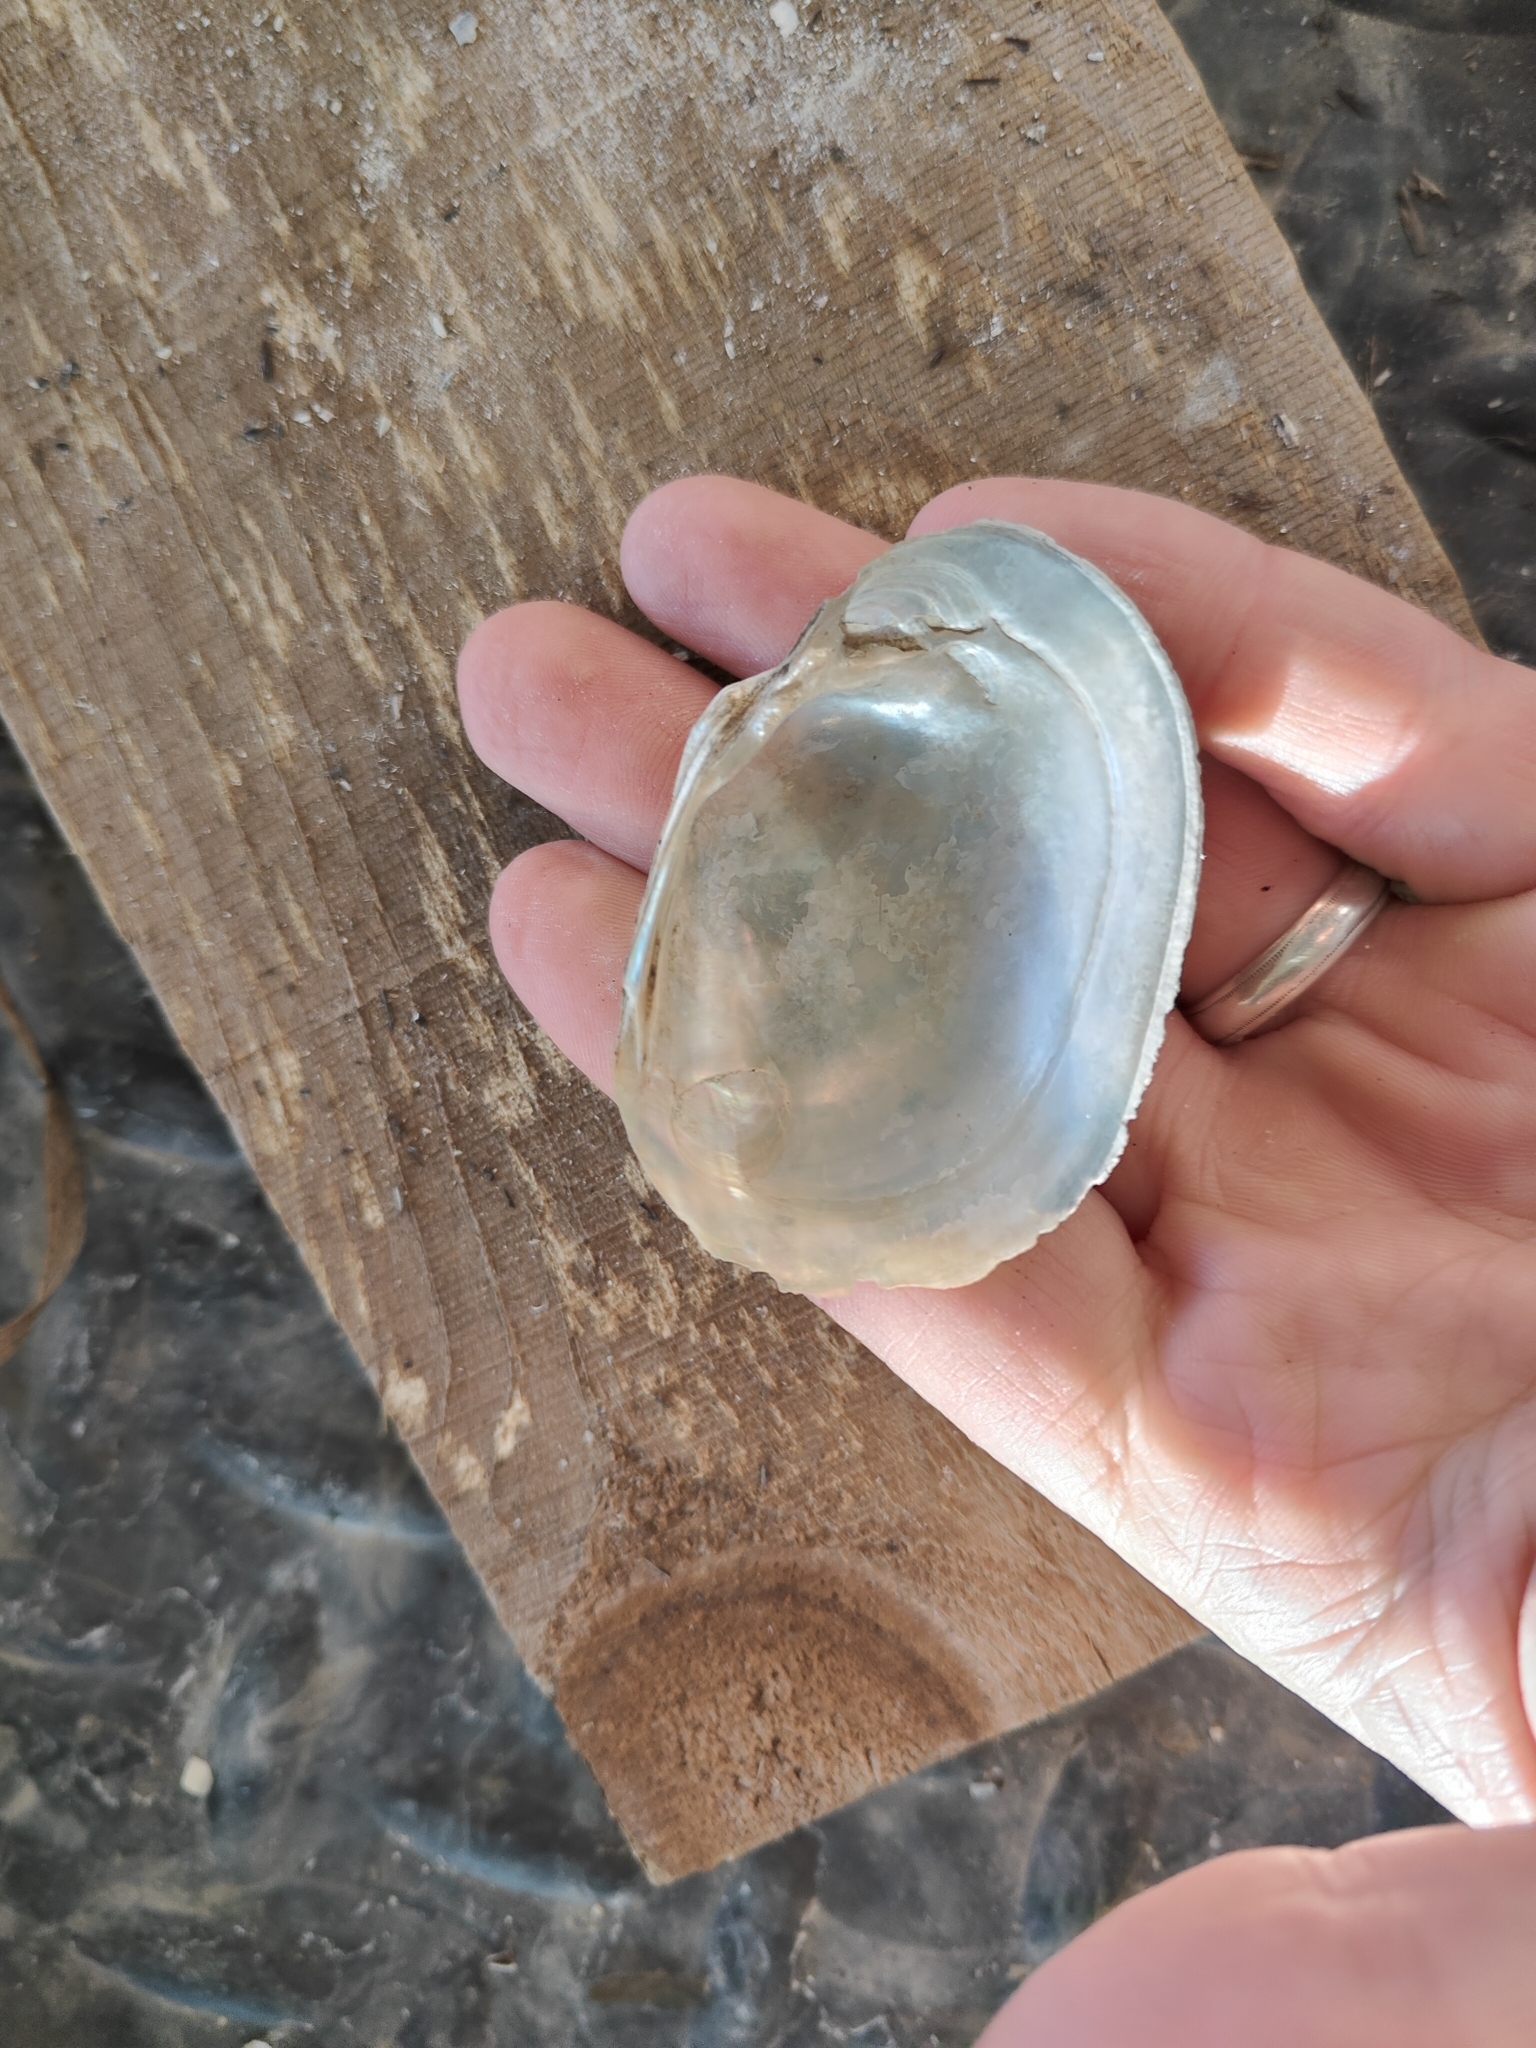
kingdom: Animalia
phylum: Mollusca
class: Bivalvia
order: Unionida
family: Unionidae
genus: Lampsilis
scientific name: Lampsilis cardium
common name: Plain pocketbook
